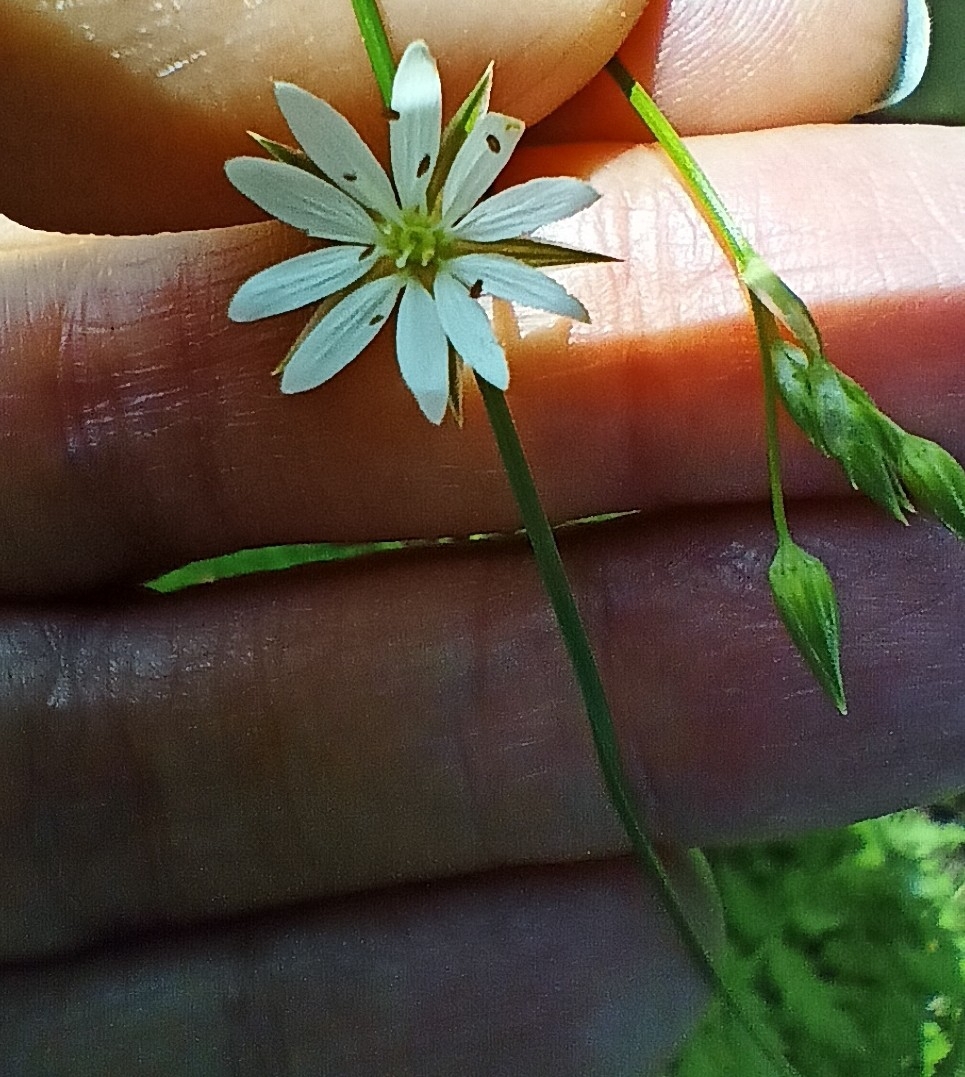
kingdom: Plantae
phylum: Tracheophyta
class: Magnoliopsida
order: Caryophyllales
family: Caryophyllaceae
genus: Stellaria
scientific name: Stellaria graminea
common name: Grass-like starwort
